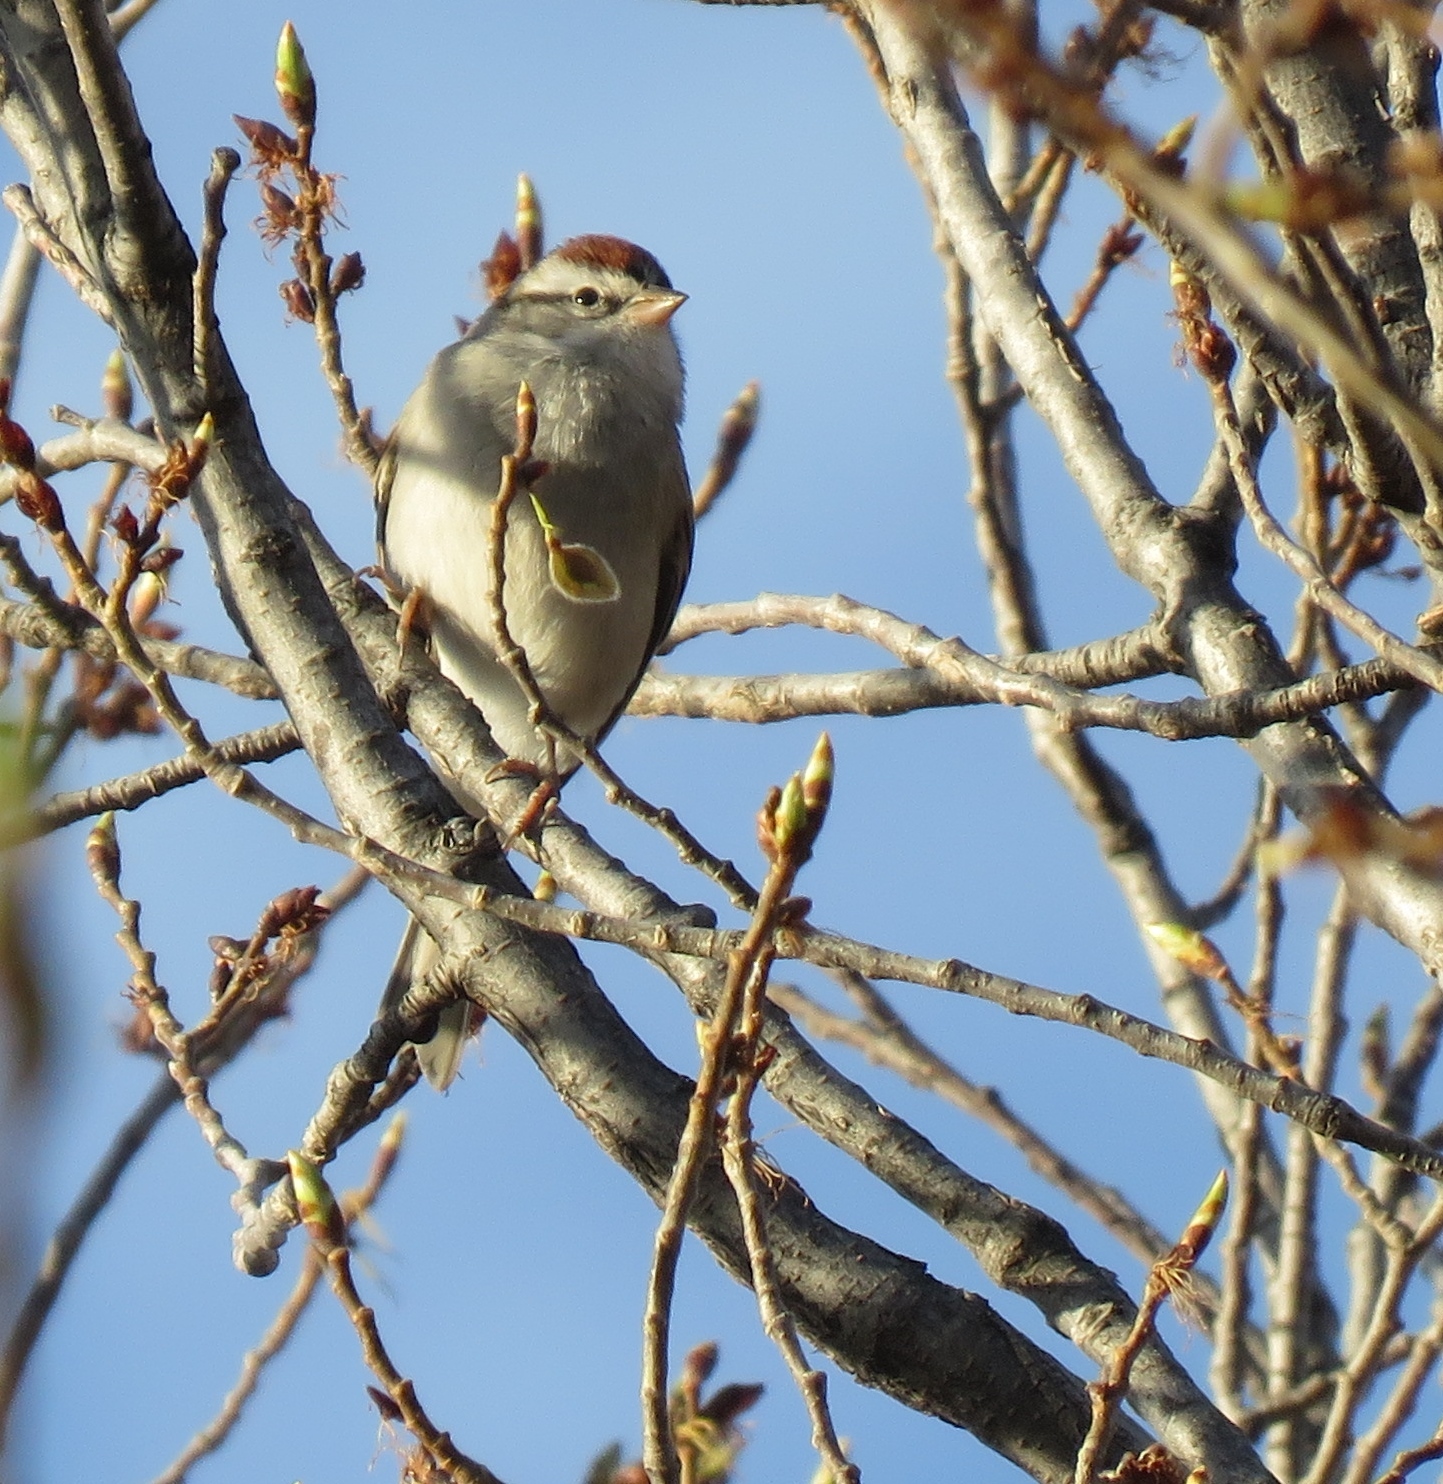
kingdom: Animalia
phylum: Chordata
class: Aves
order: Passeriformes
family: Passerellidae
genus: Spizella
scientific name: Spizella passerina
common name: Chipping sparrow
